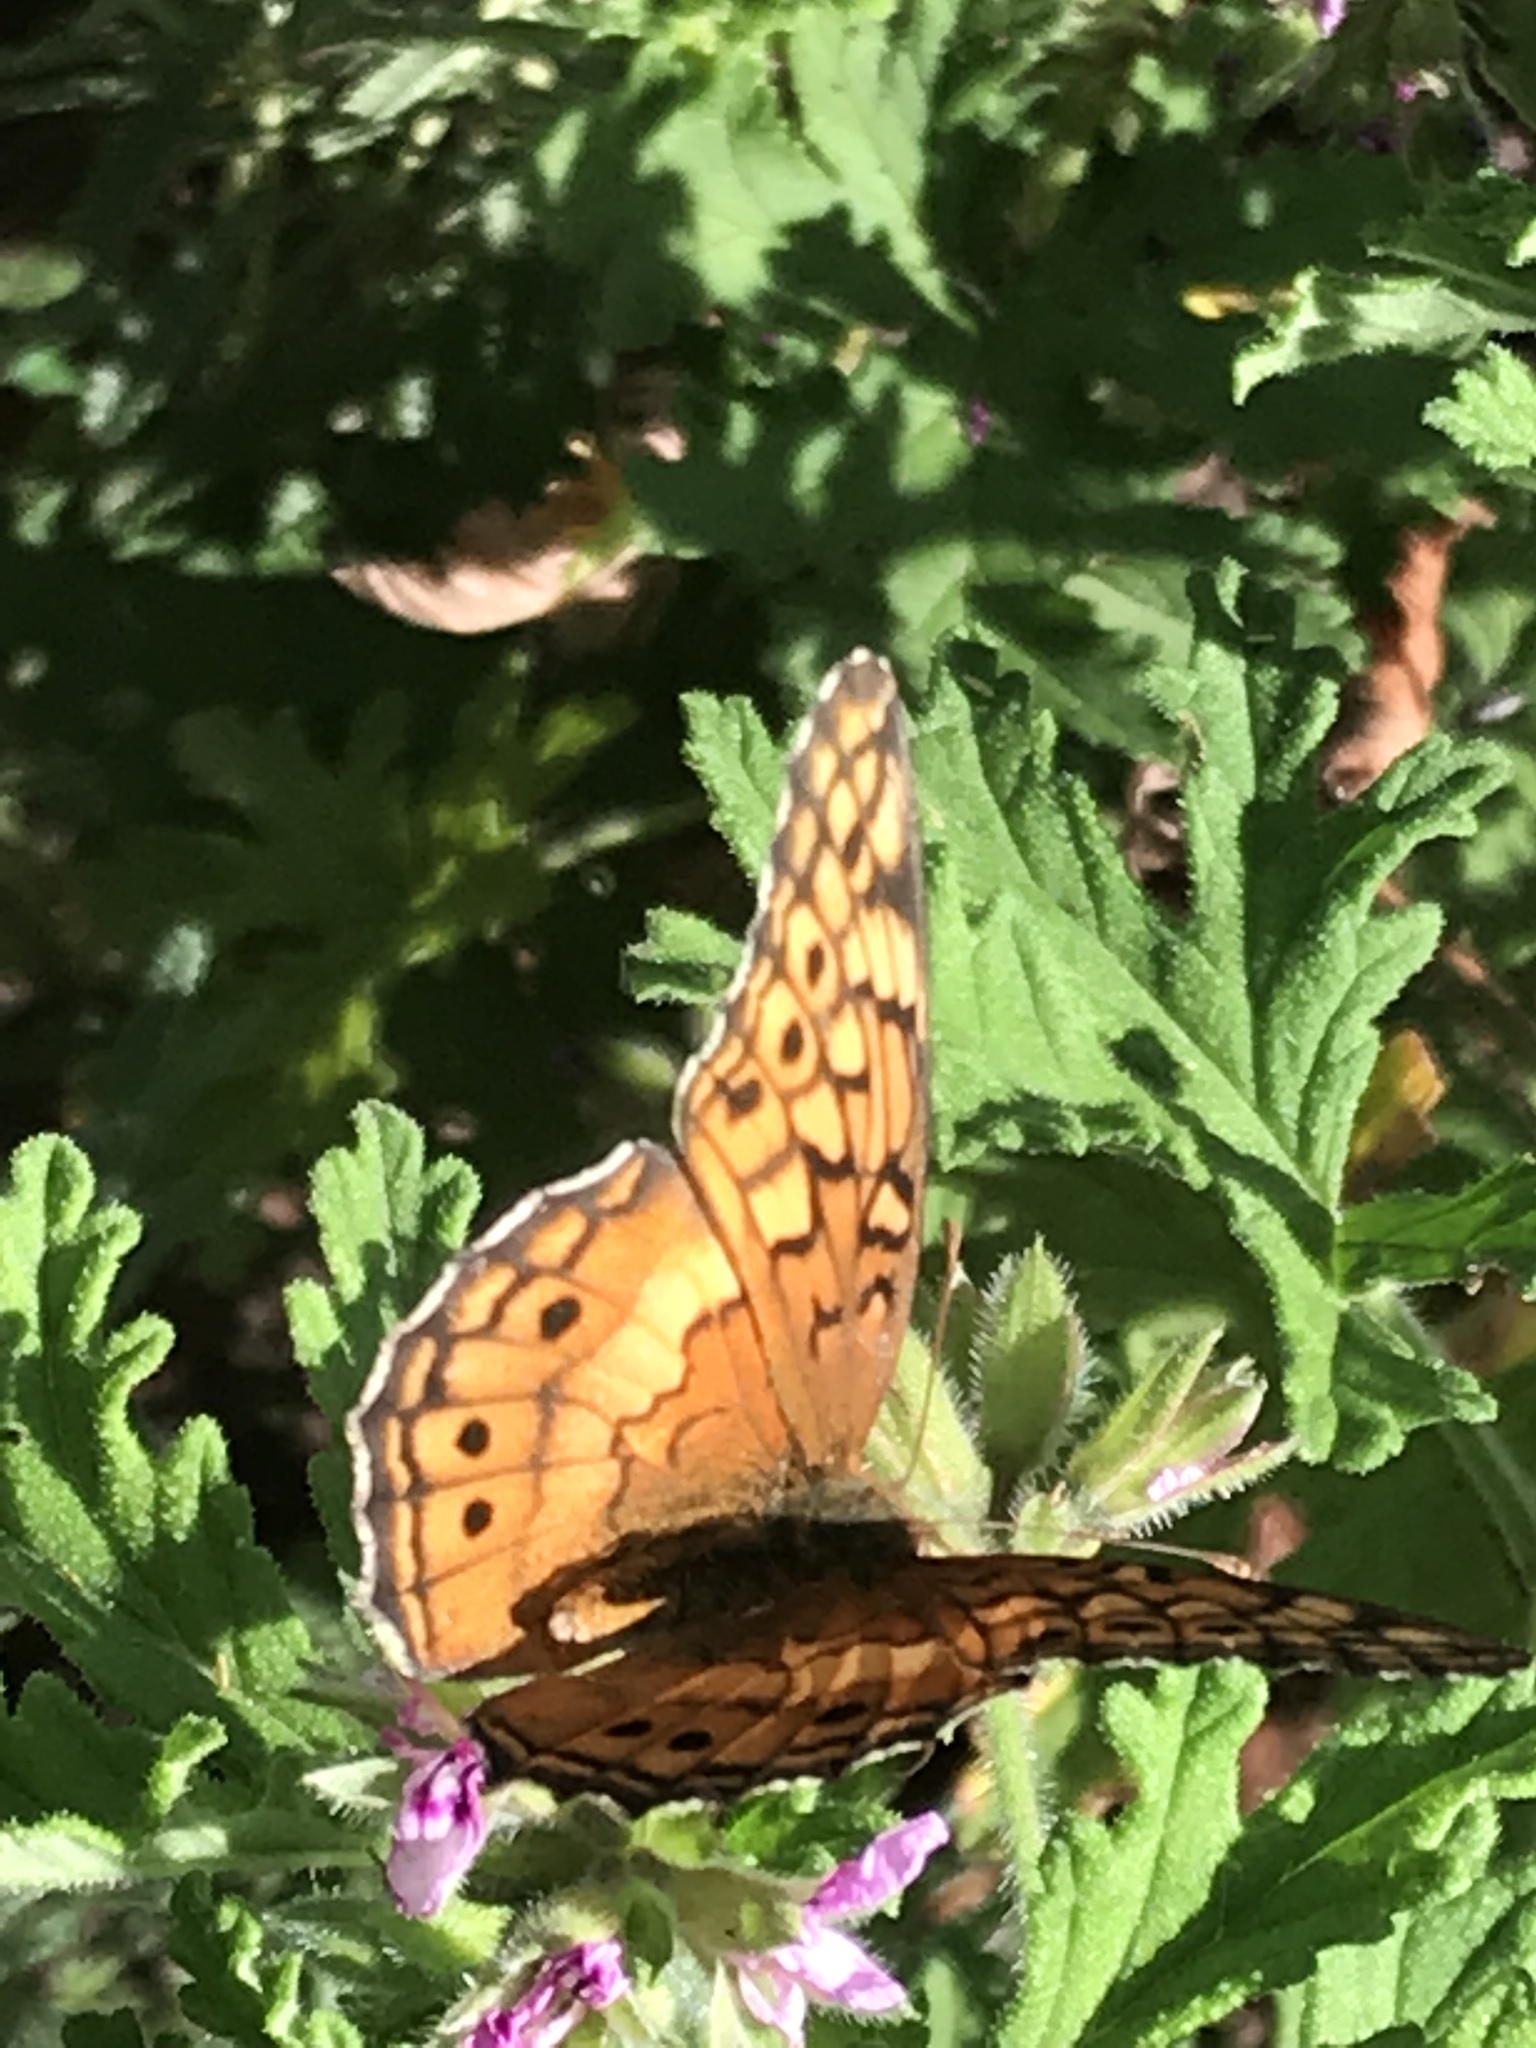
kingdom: Animalia
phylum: Arthropoda
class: Insecta
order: Lepidoptera
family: Nymphalidae
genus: Euptoieta
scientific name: Euptoieta claudia
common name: Variegated fritillary
